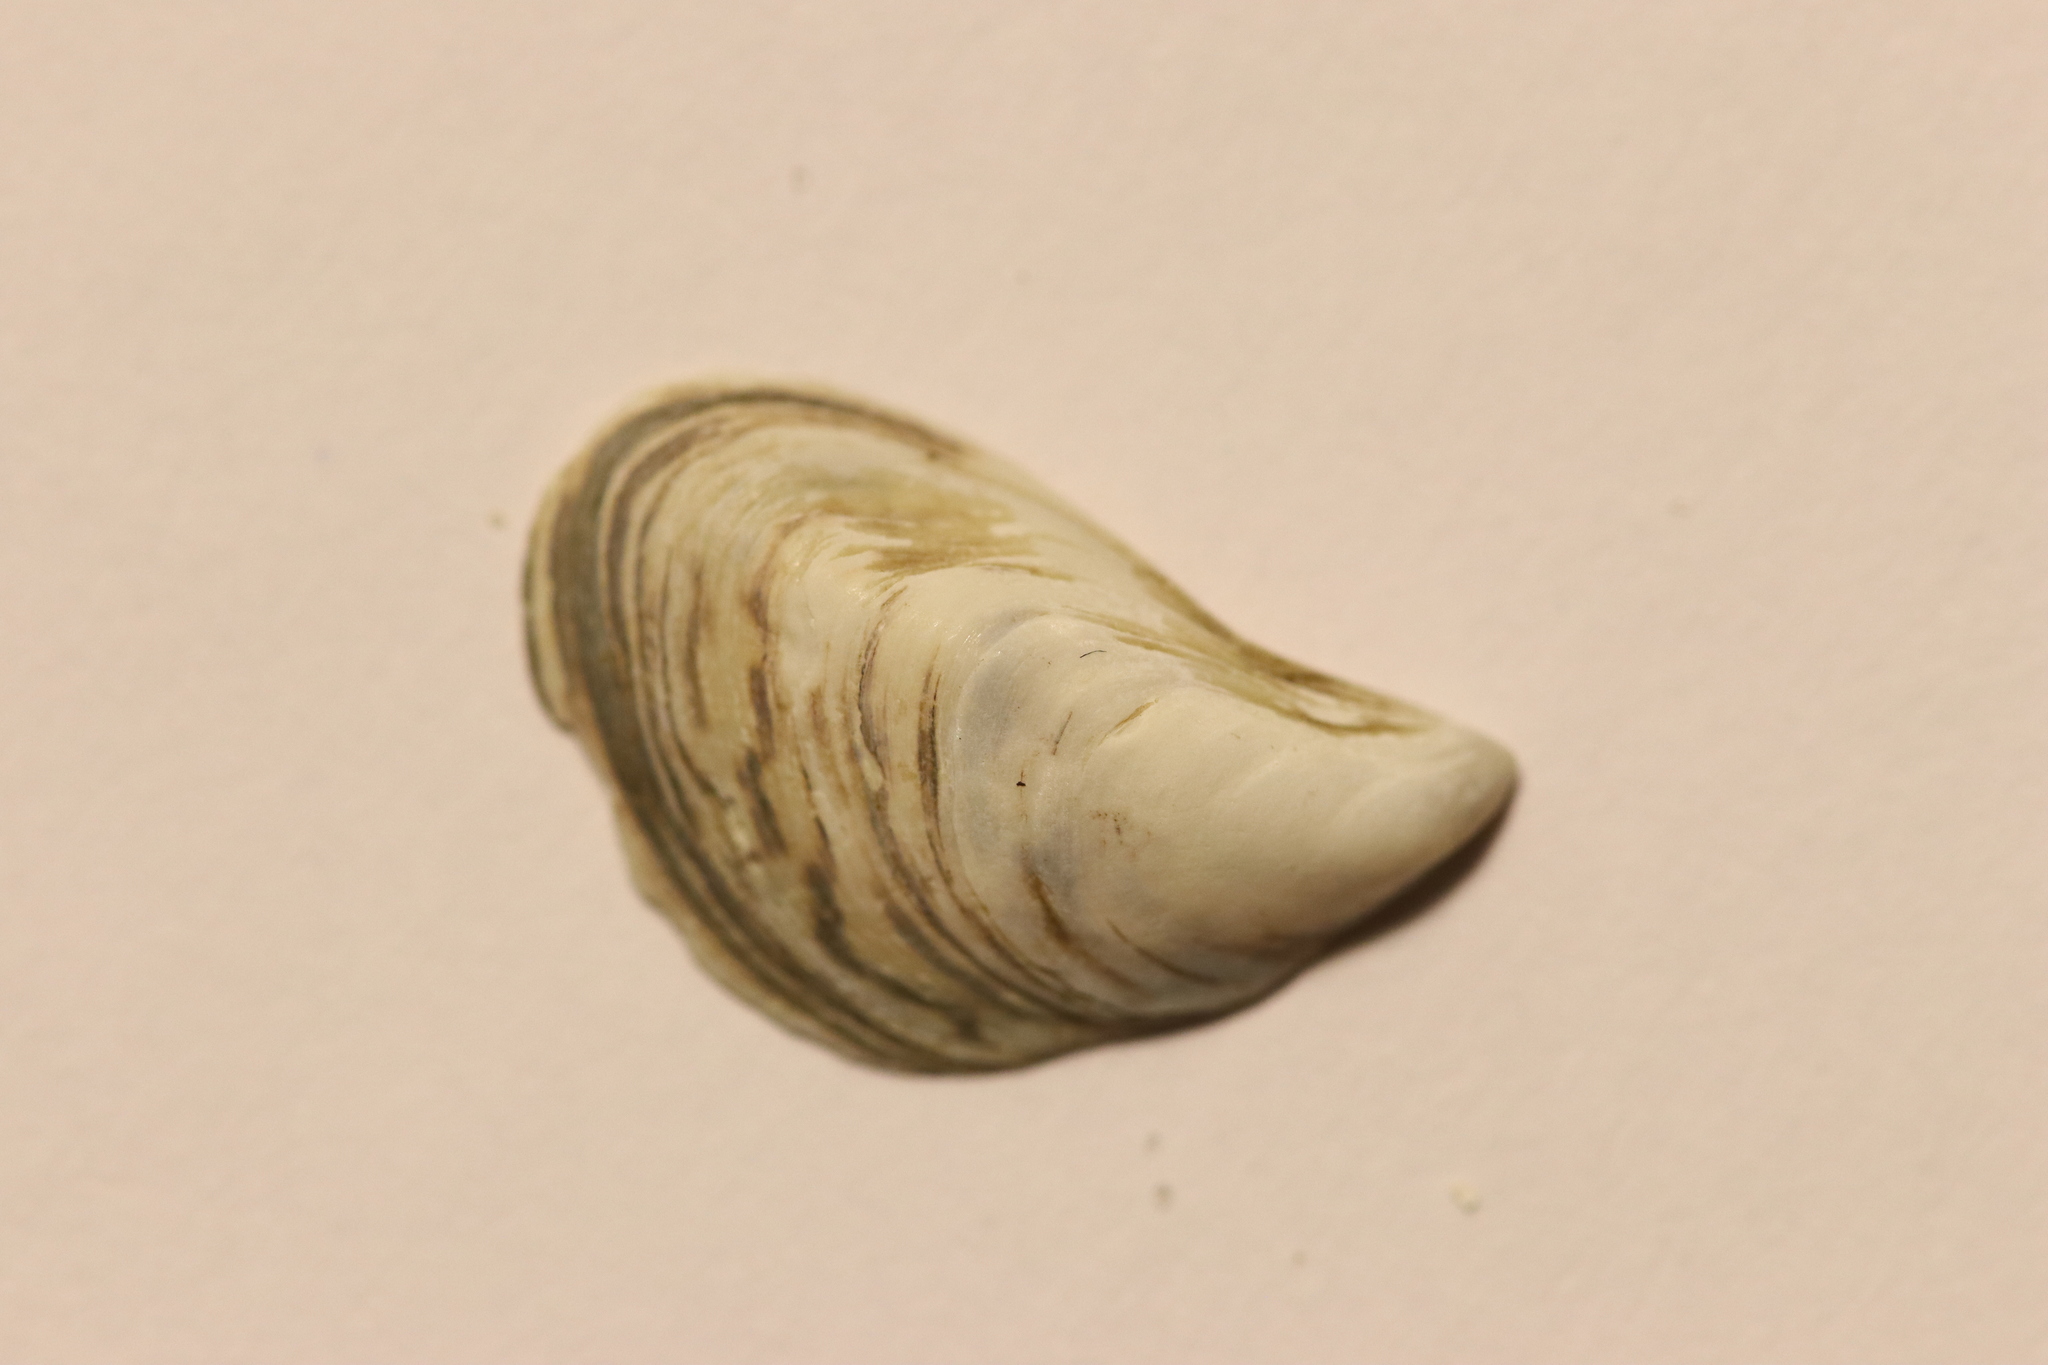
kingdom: Animalia
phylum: Mollusca
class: Bivalvia
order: Myida
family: Dreissenidae
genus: Dreissena
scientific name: Dreissena bugensis
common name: Quagga mussel
